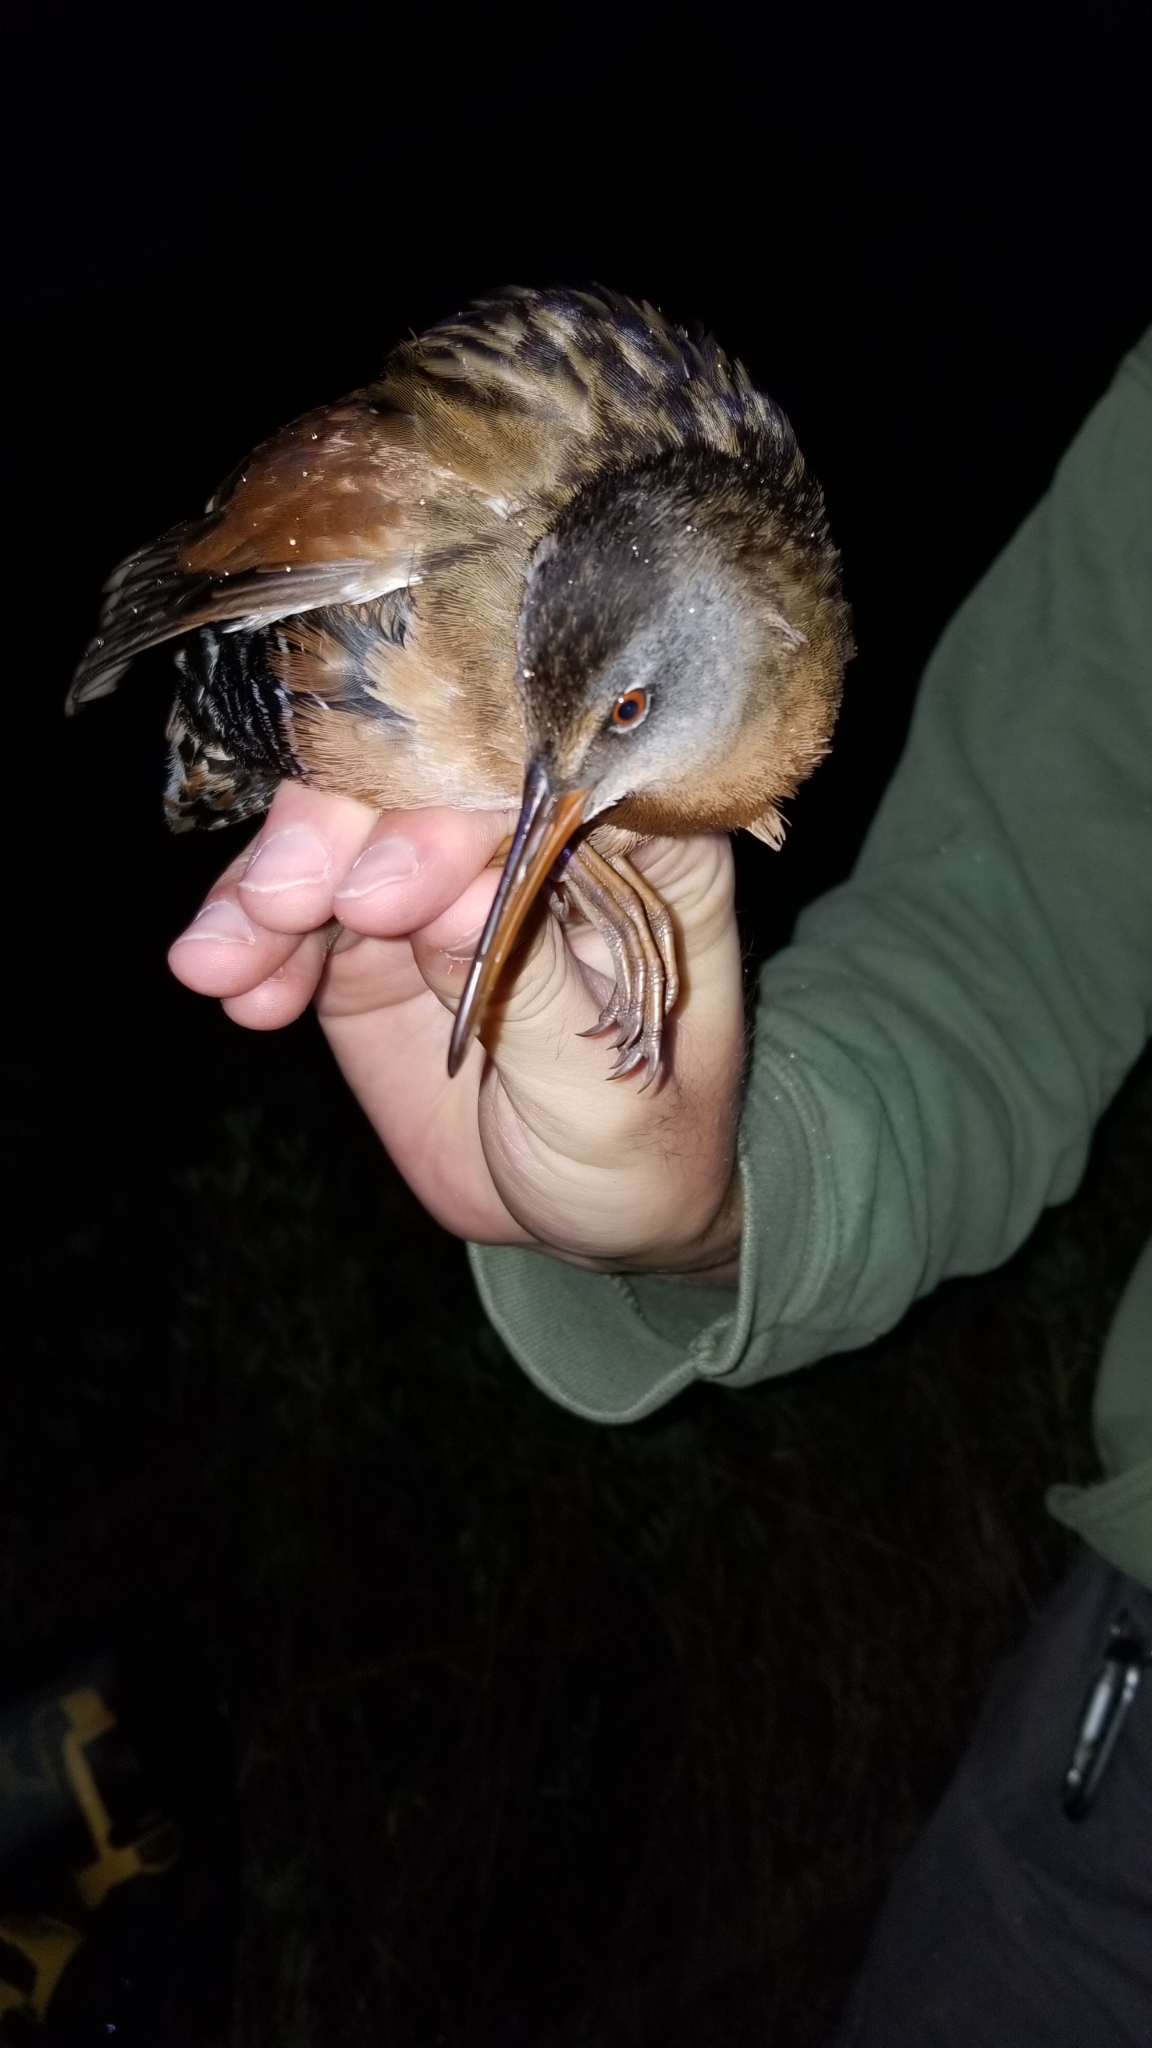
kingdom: Animalia
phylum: Chordata
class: Aves
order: Gruiformes
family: Rallidae
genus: Rallus
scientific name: Rallus limicola
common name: Virginia rail
